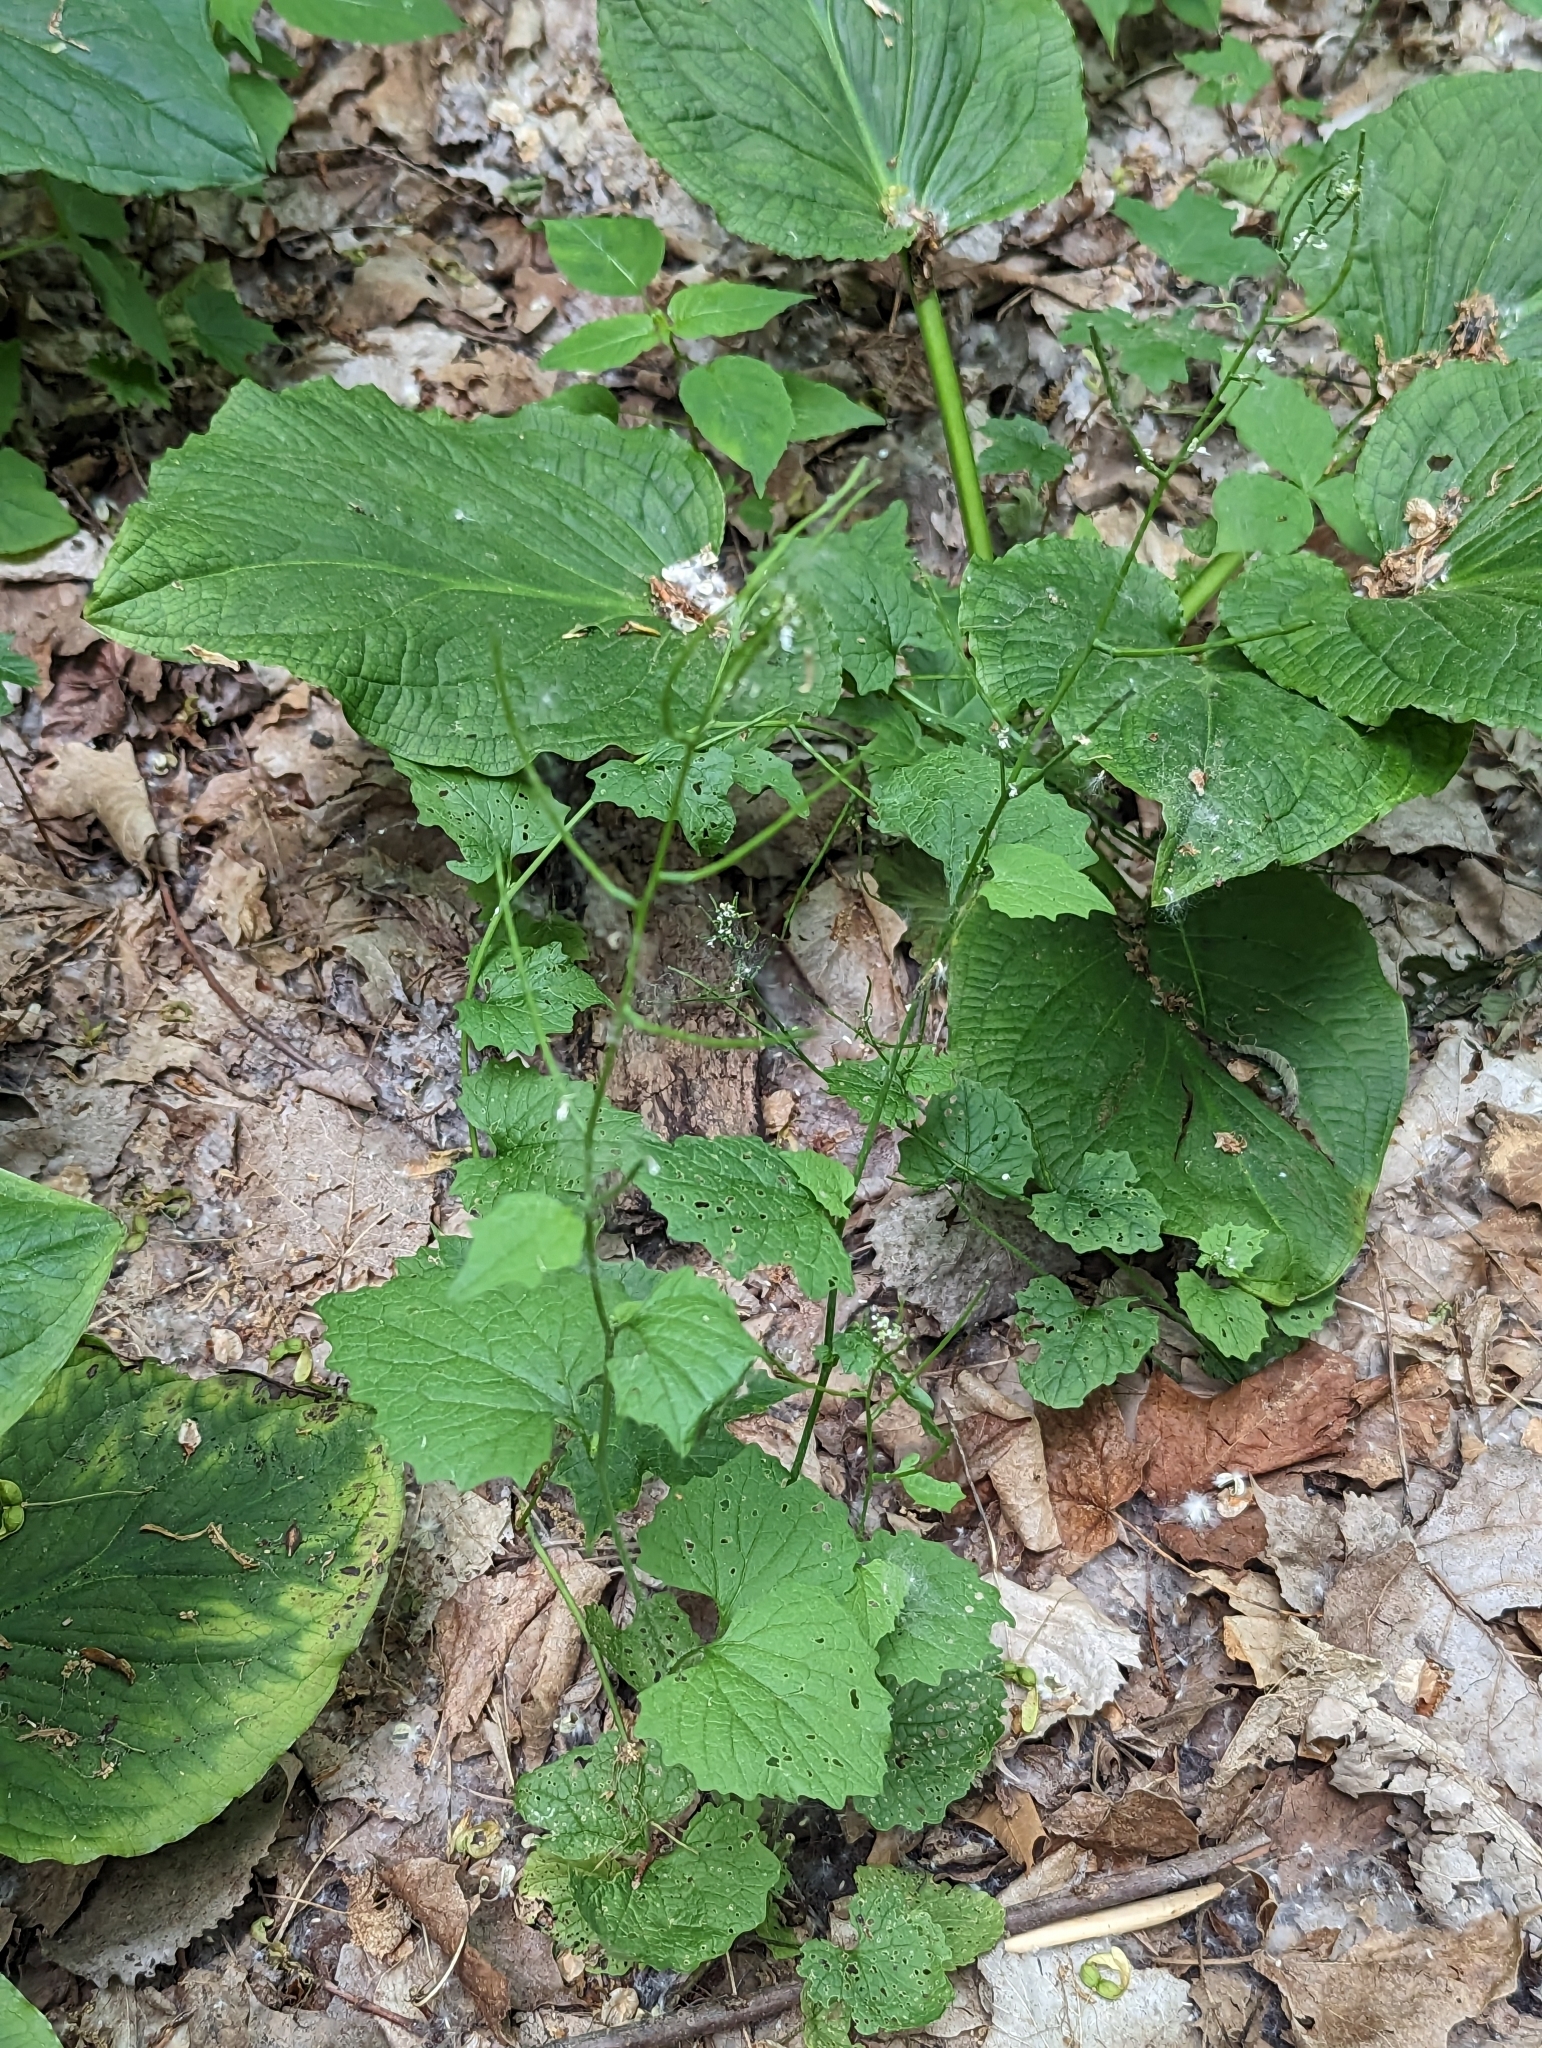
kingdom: Plantae
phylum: Tracheophyta
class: Magnoliopsida
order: Brassicales
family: Brassicaceae
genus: Alliaria
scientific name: Alliaria petiolata
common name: Garlic mustard
